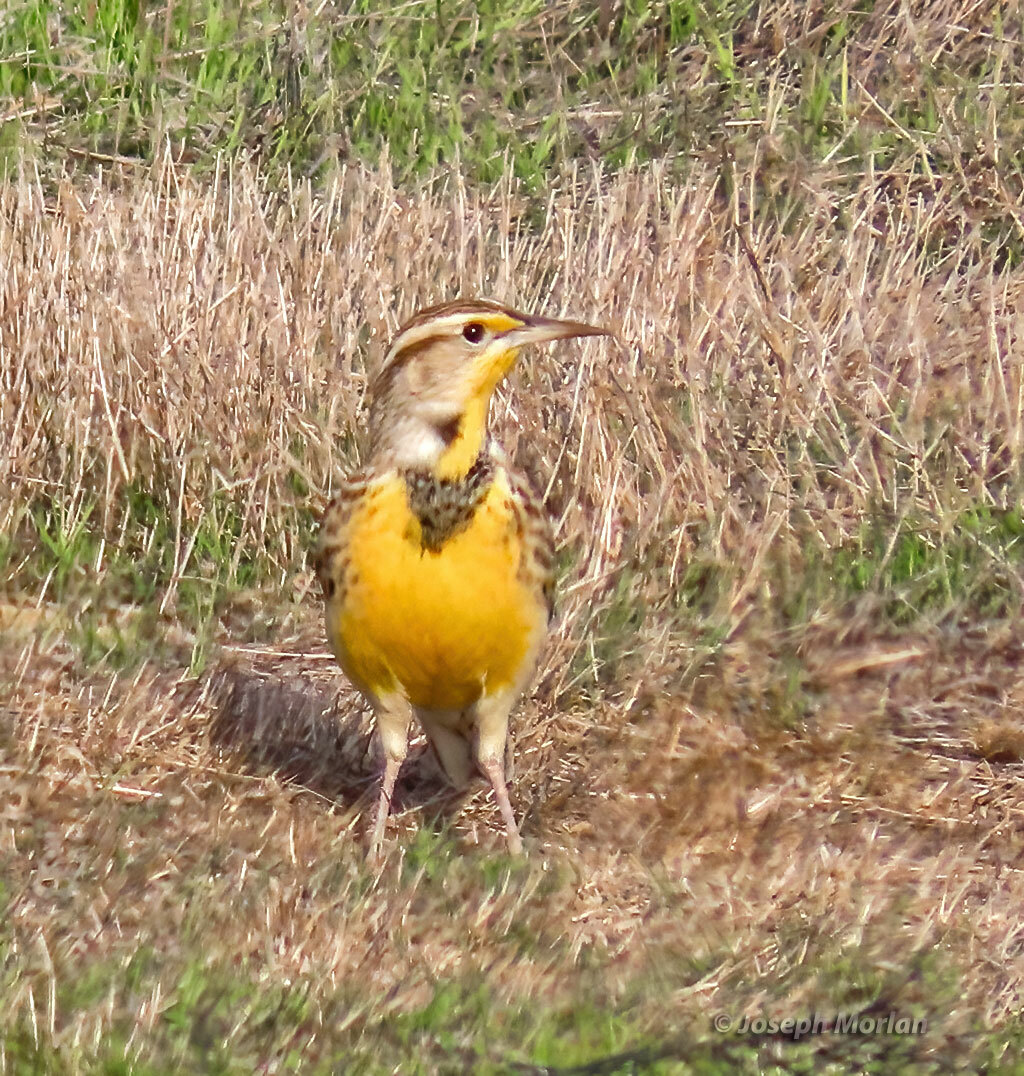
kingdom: Animalia
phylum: Chordata
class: Aves
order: Passeriformes
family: Icteridae
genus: Sturnella
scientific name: Sturnella neglecta
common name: Western meadowlark
